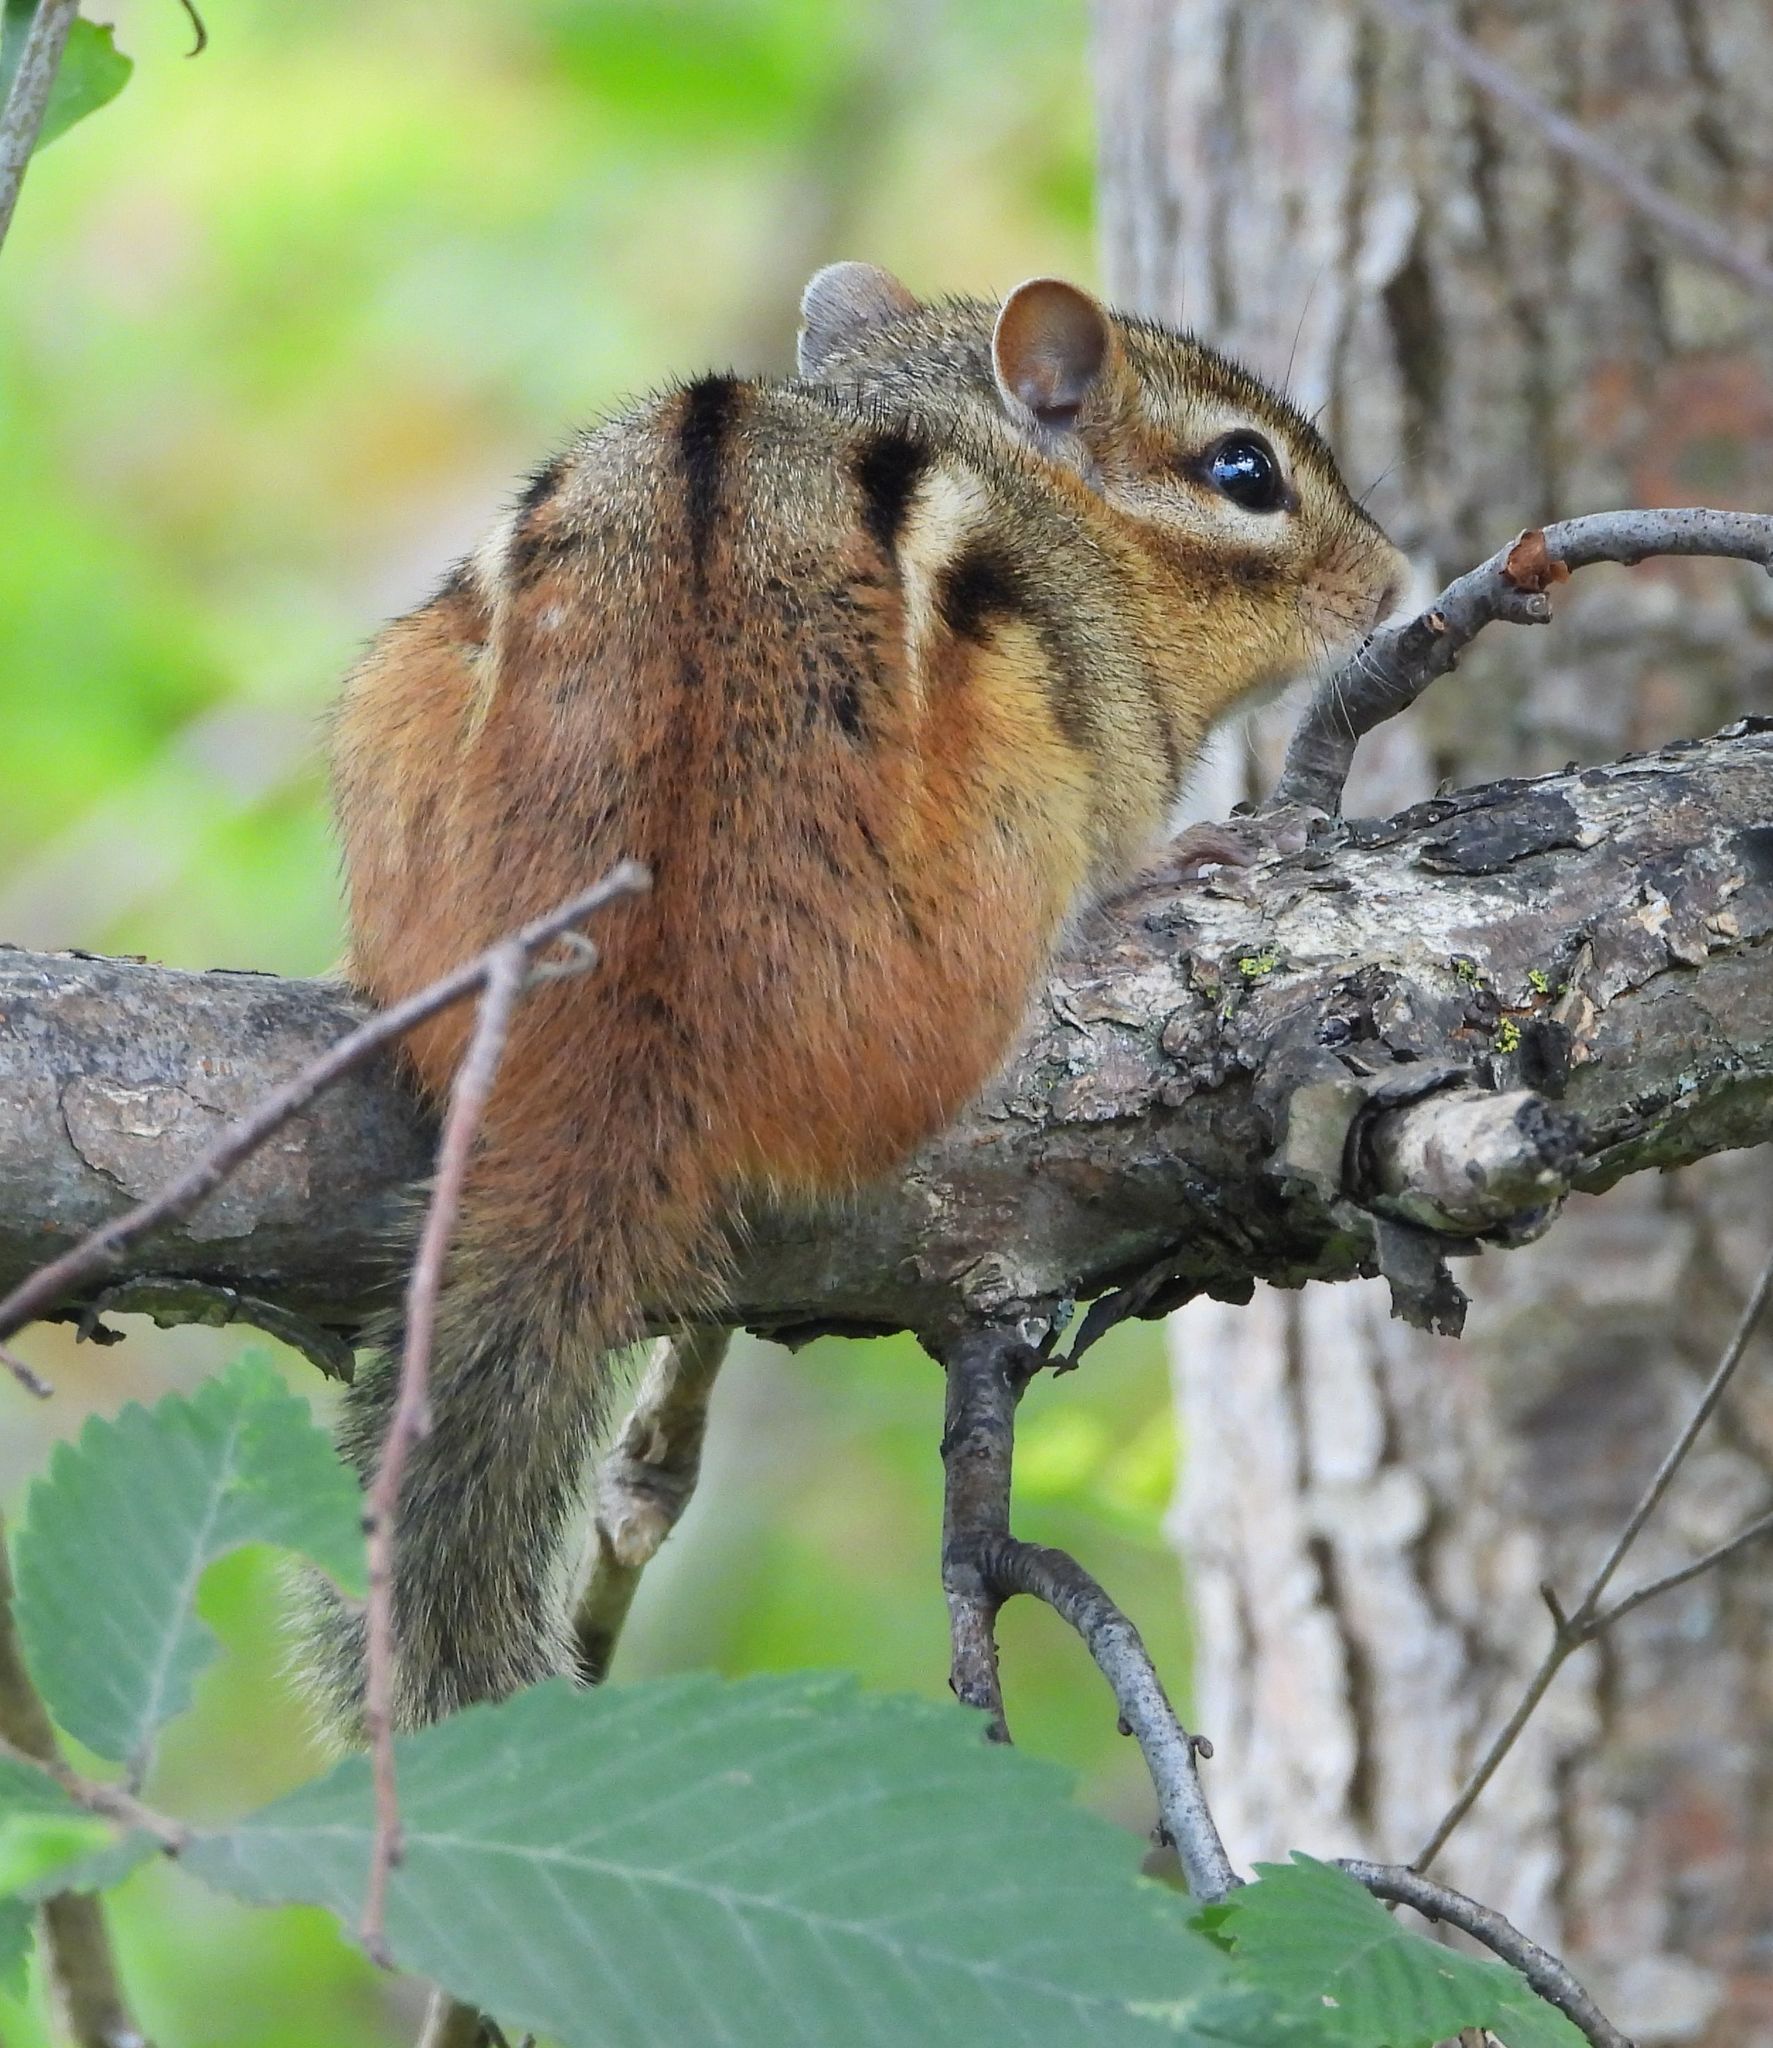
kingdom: Animalia
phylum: Chordata
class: Mammalia
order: Rodentia
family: Sciuridae
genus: Tamias
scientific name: Tamias striatus
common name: Eastern chipmunk
